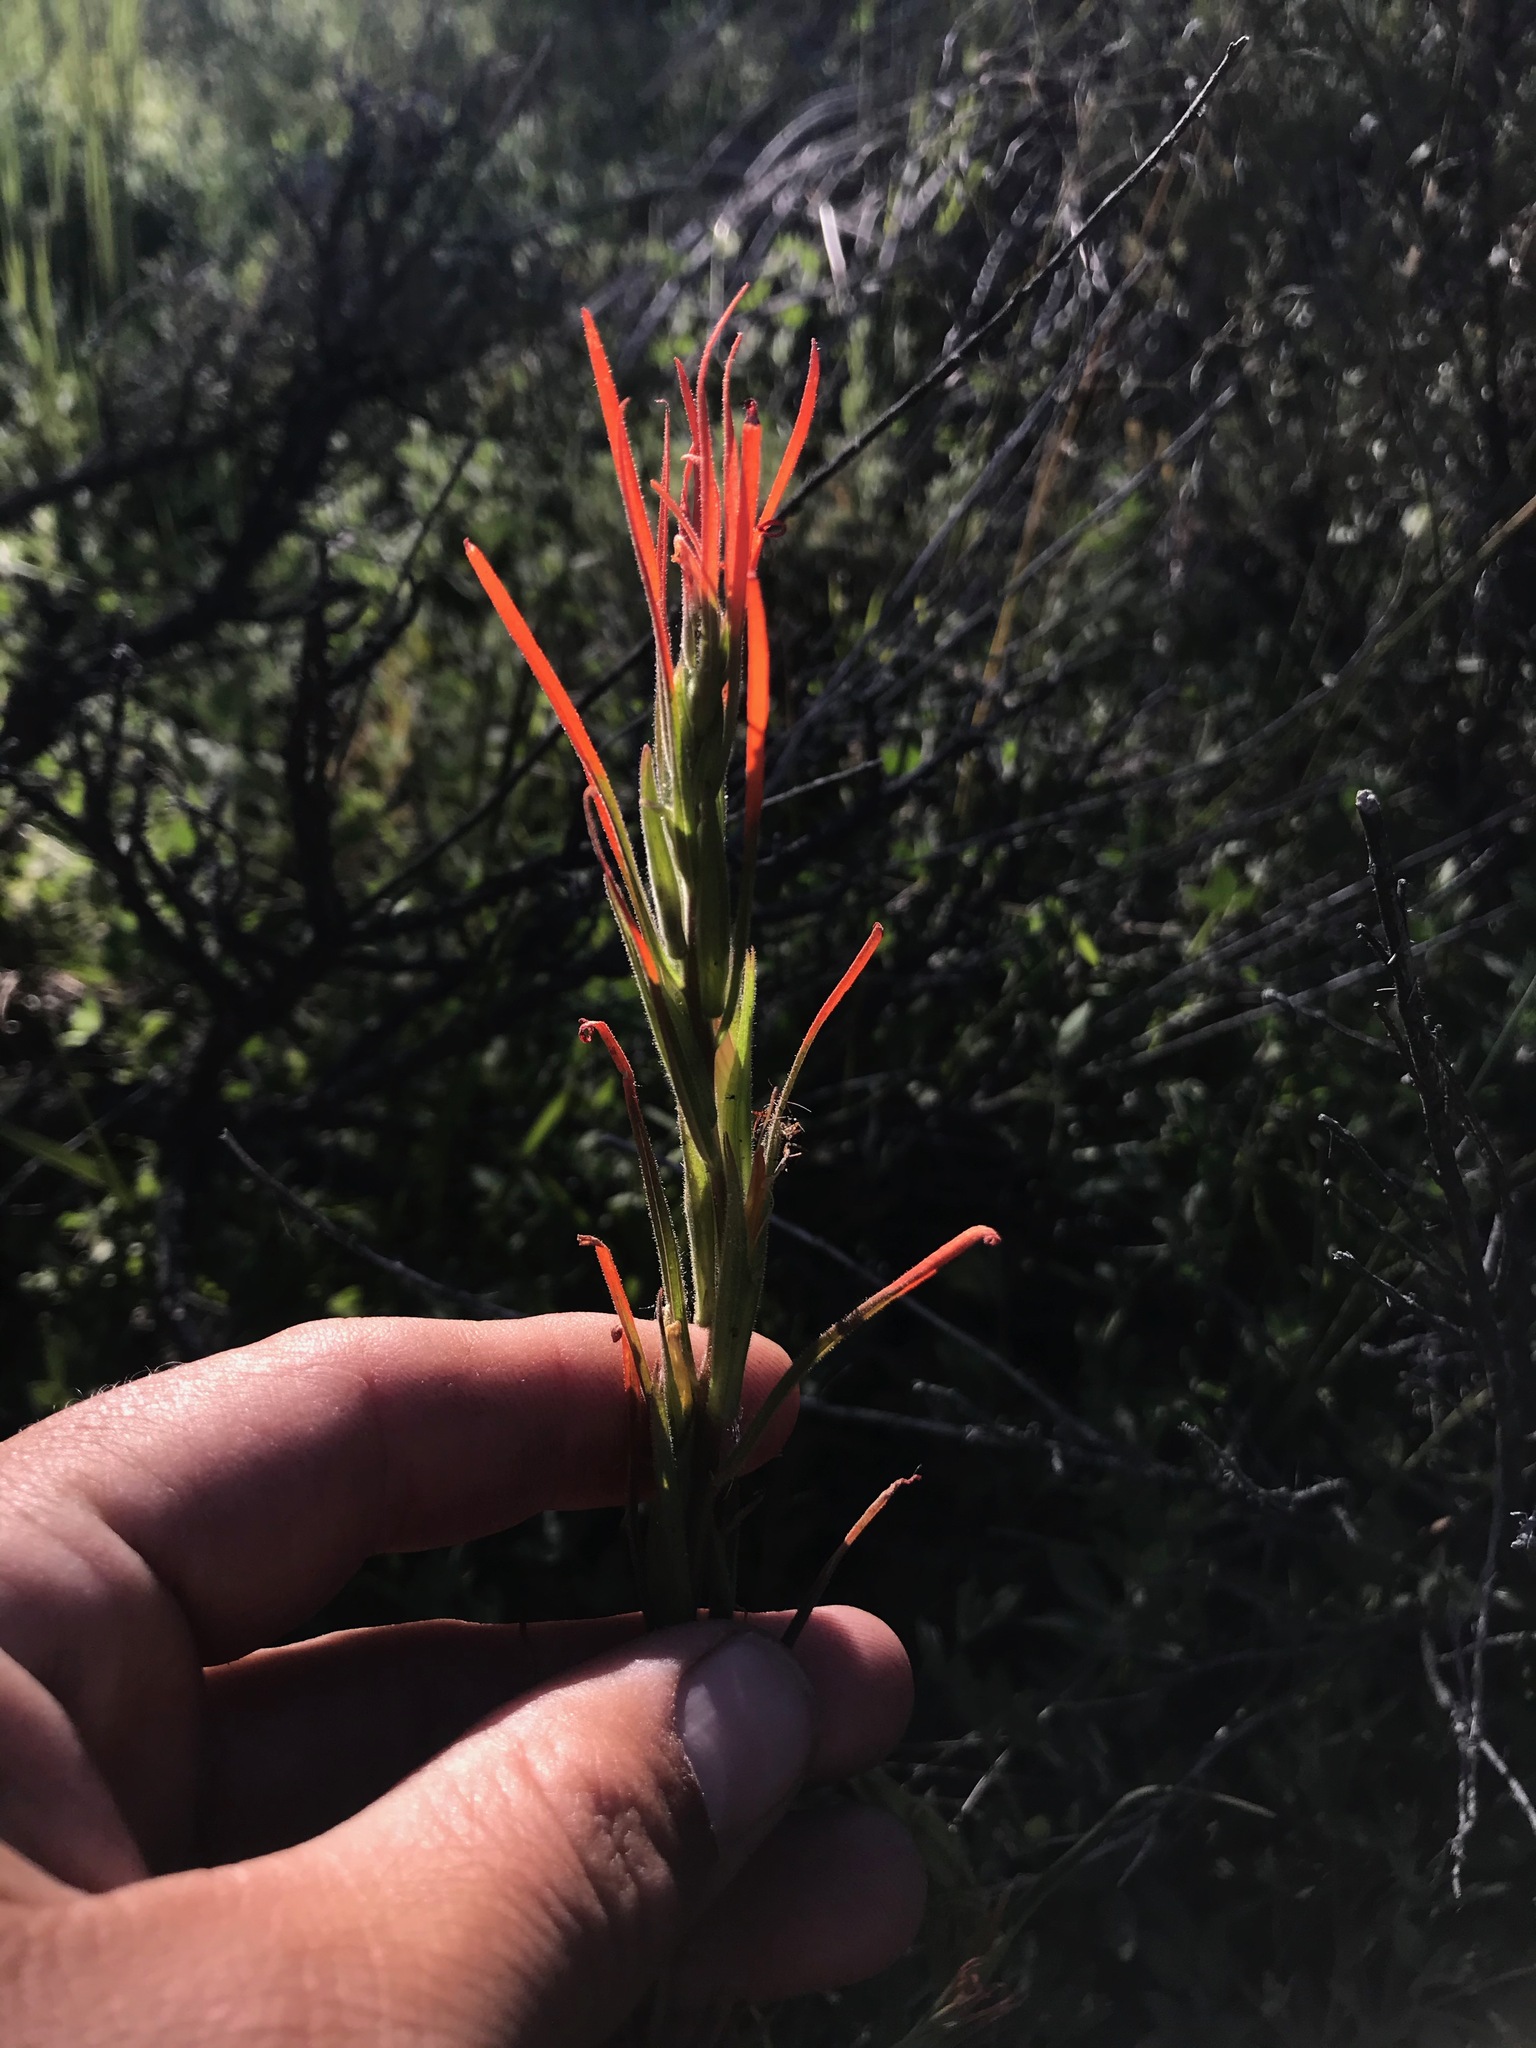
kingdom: Plantae
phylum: Tracheophyta
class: Magnoliopsida
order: Lamiales
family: Orobanchaceae
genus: Castilleja
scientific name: Castilleja minor
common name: Seep paintbrush
